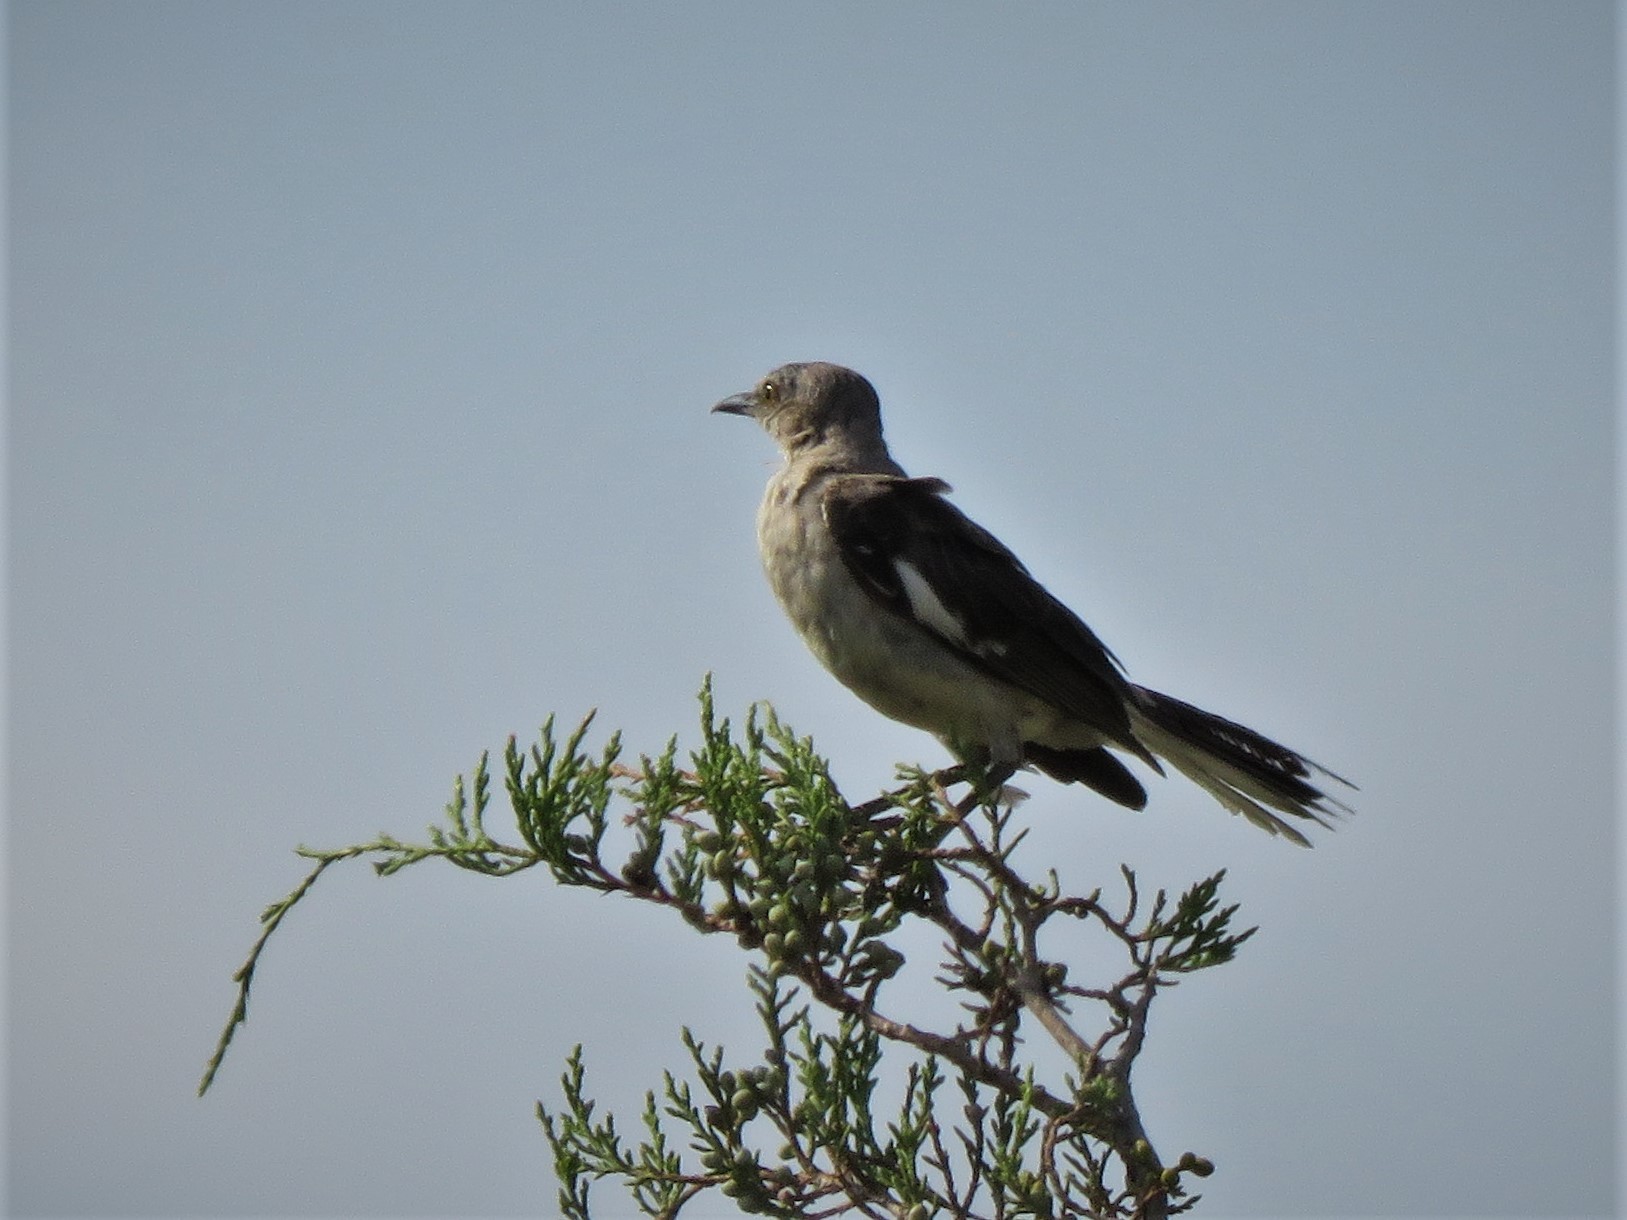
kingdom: Animalia
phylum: Chordata
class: Aves
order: Passeriformes
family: Mimidae
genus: Mimus
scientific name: Mimus polyglottos
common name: Northern mockingbird
